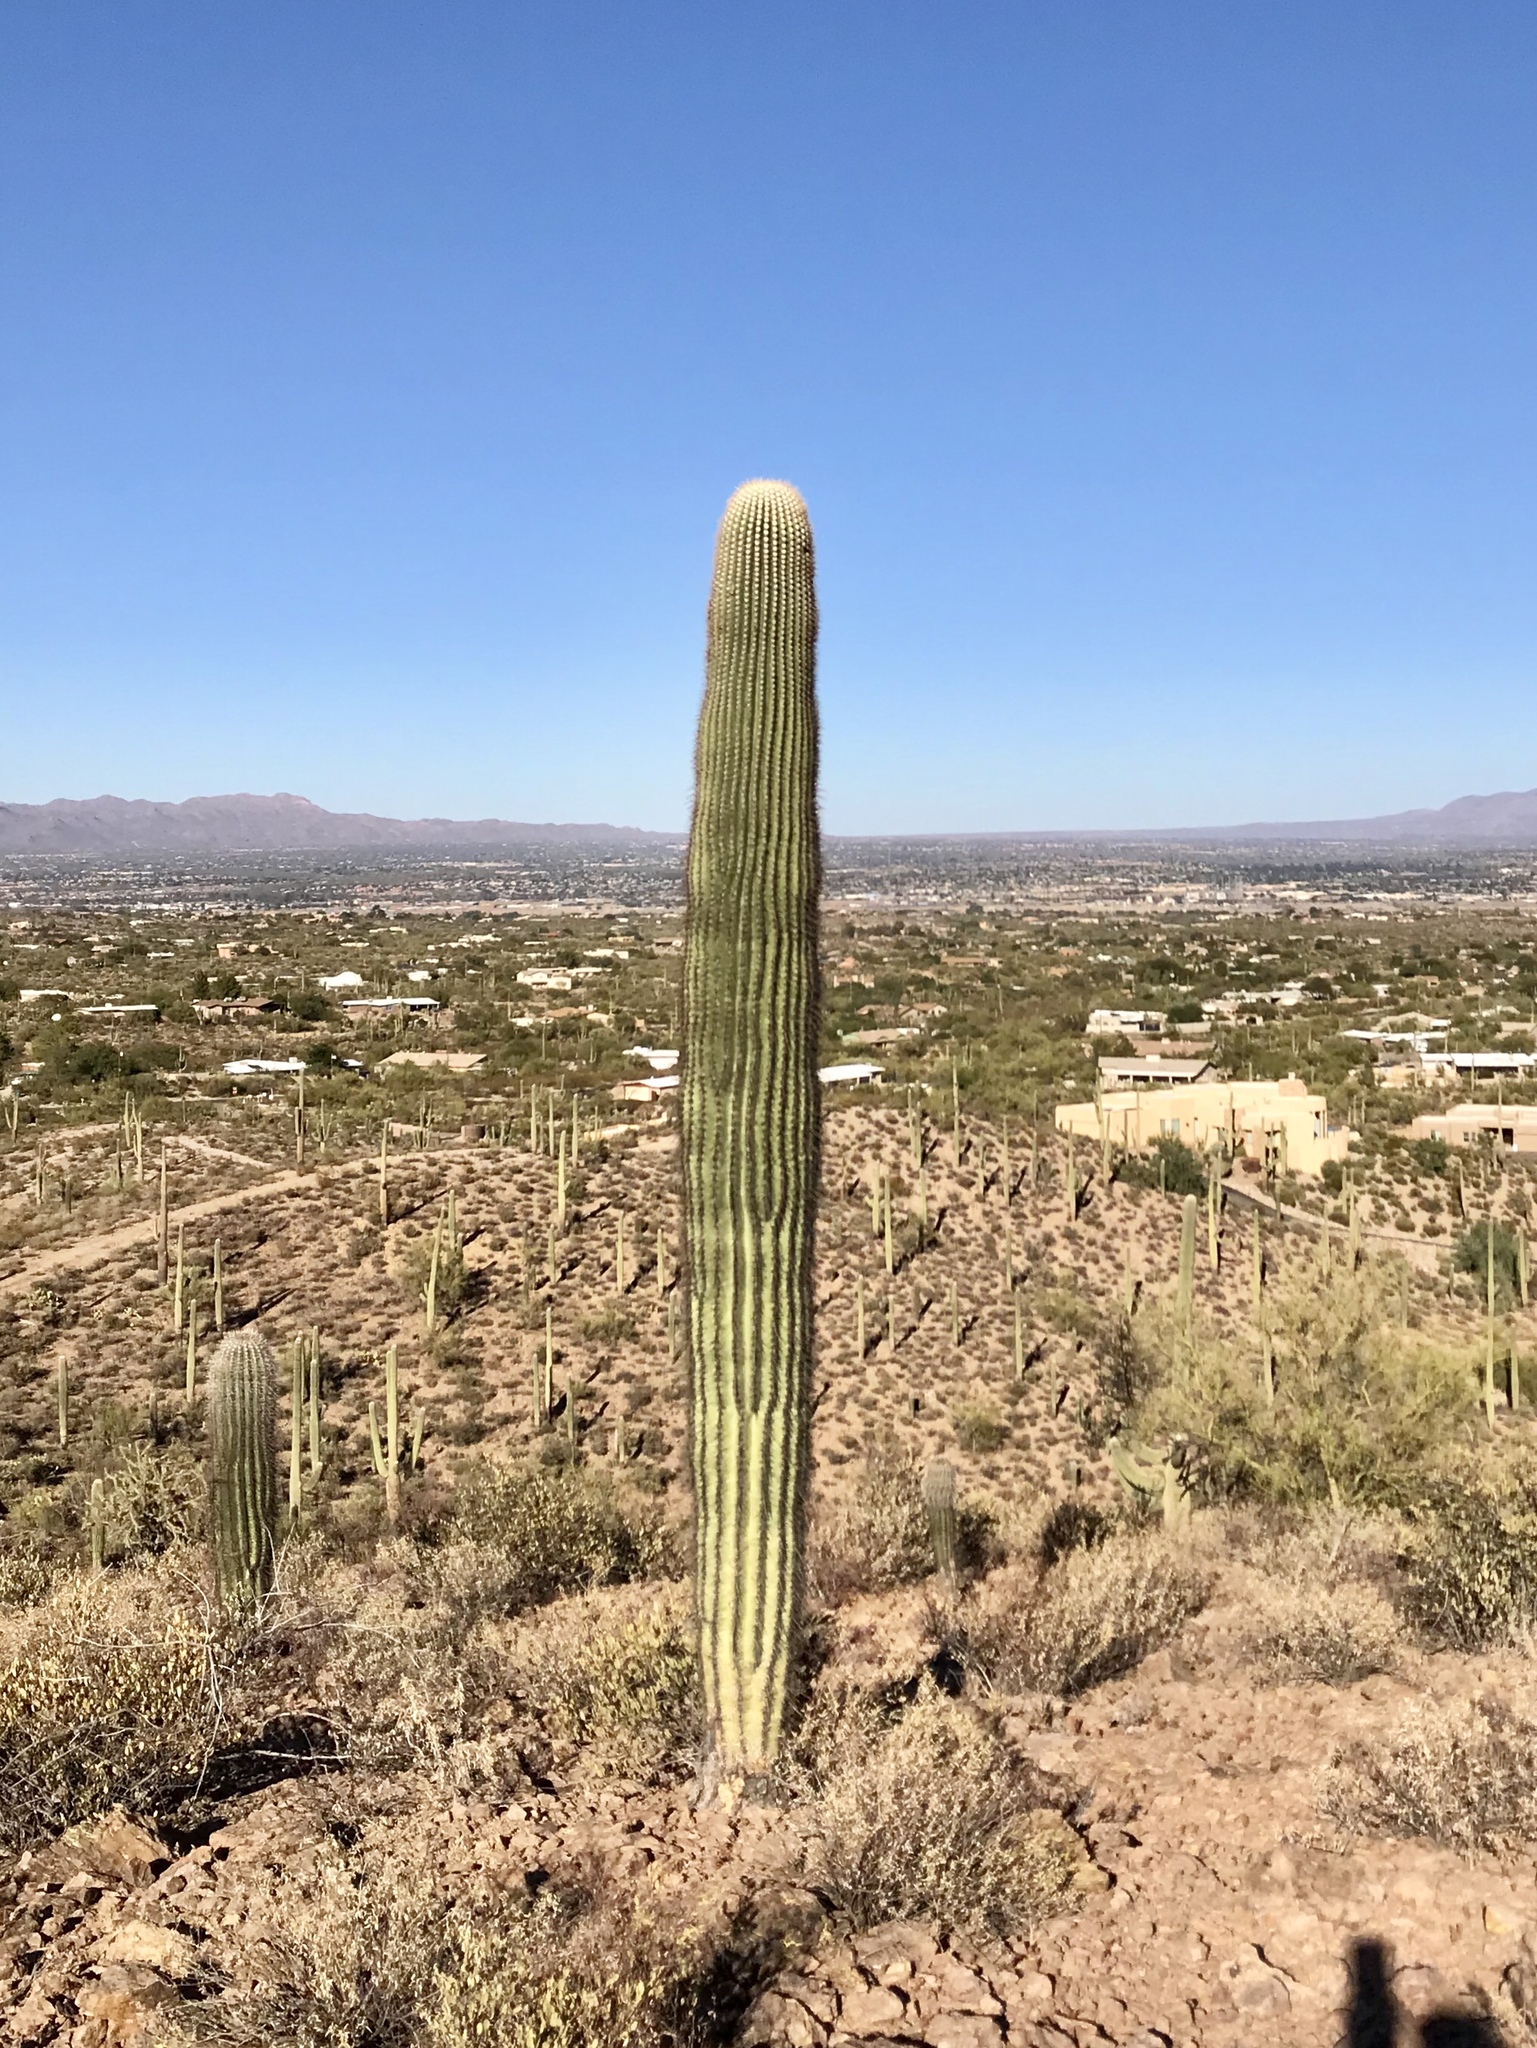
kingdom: Plantae
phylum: Tracheophyta
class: Magnoliopsida
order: Caryophyllales
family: Cactaceae
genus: Carnegiea
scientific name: Carnegiea gigantea
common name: Saguaro
